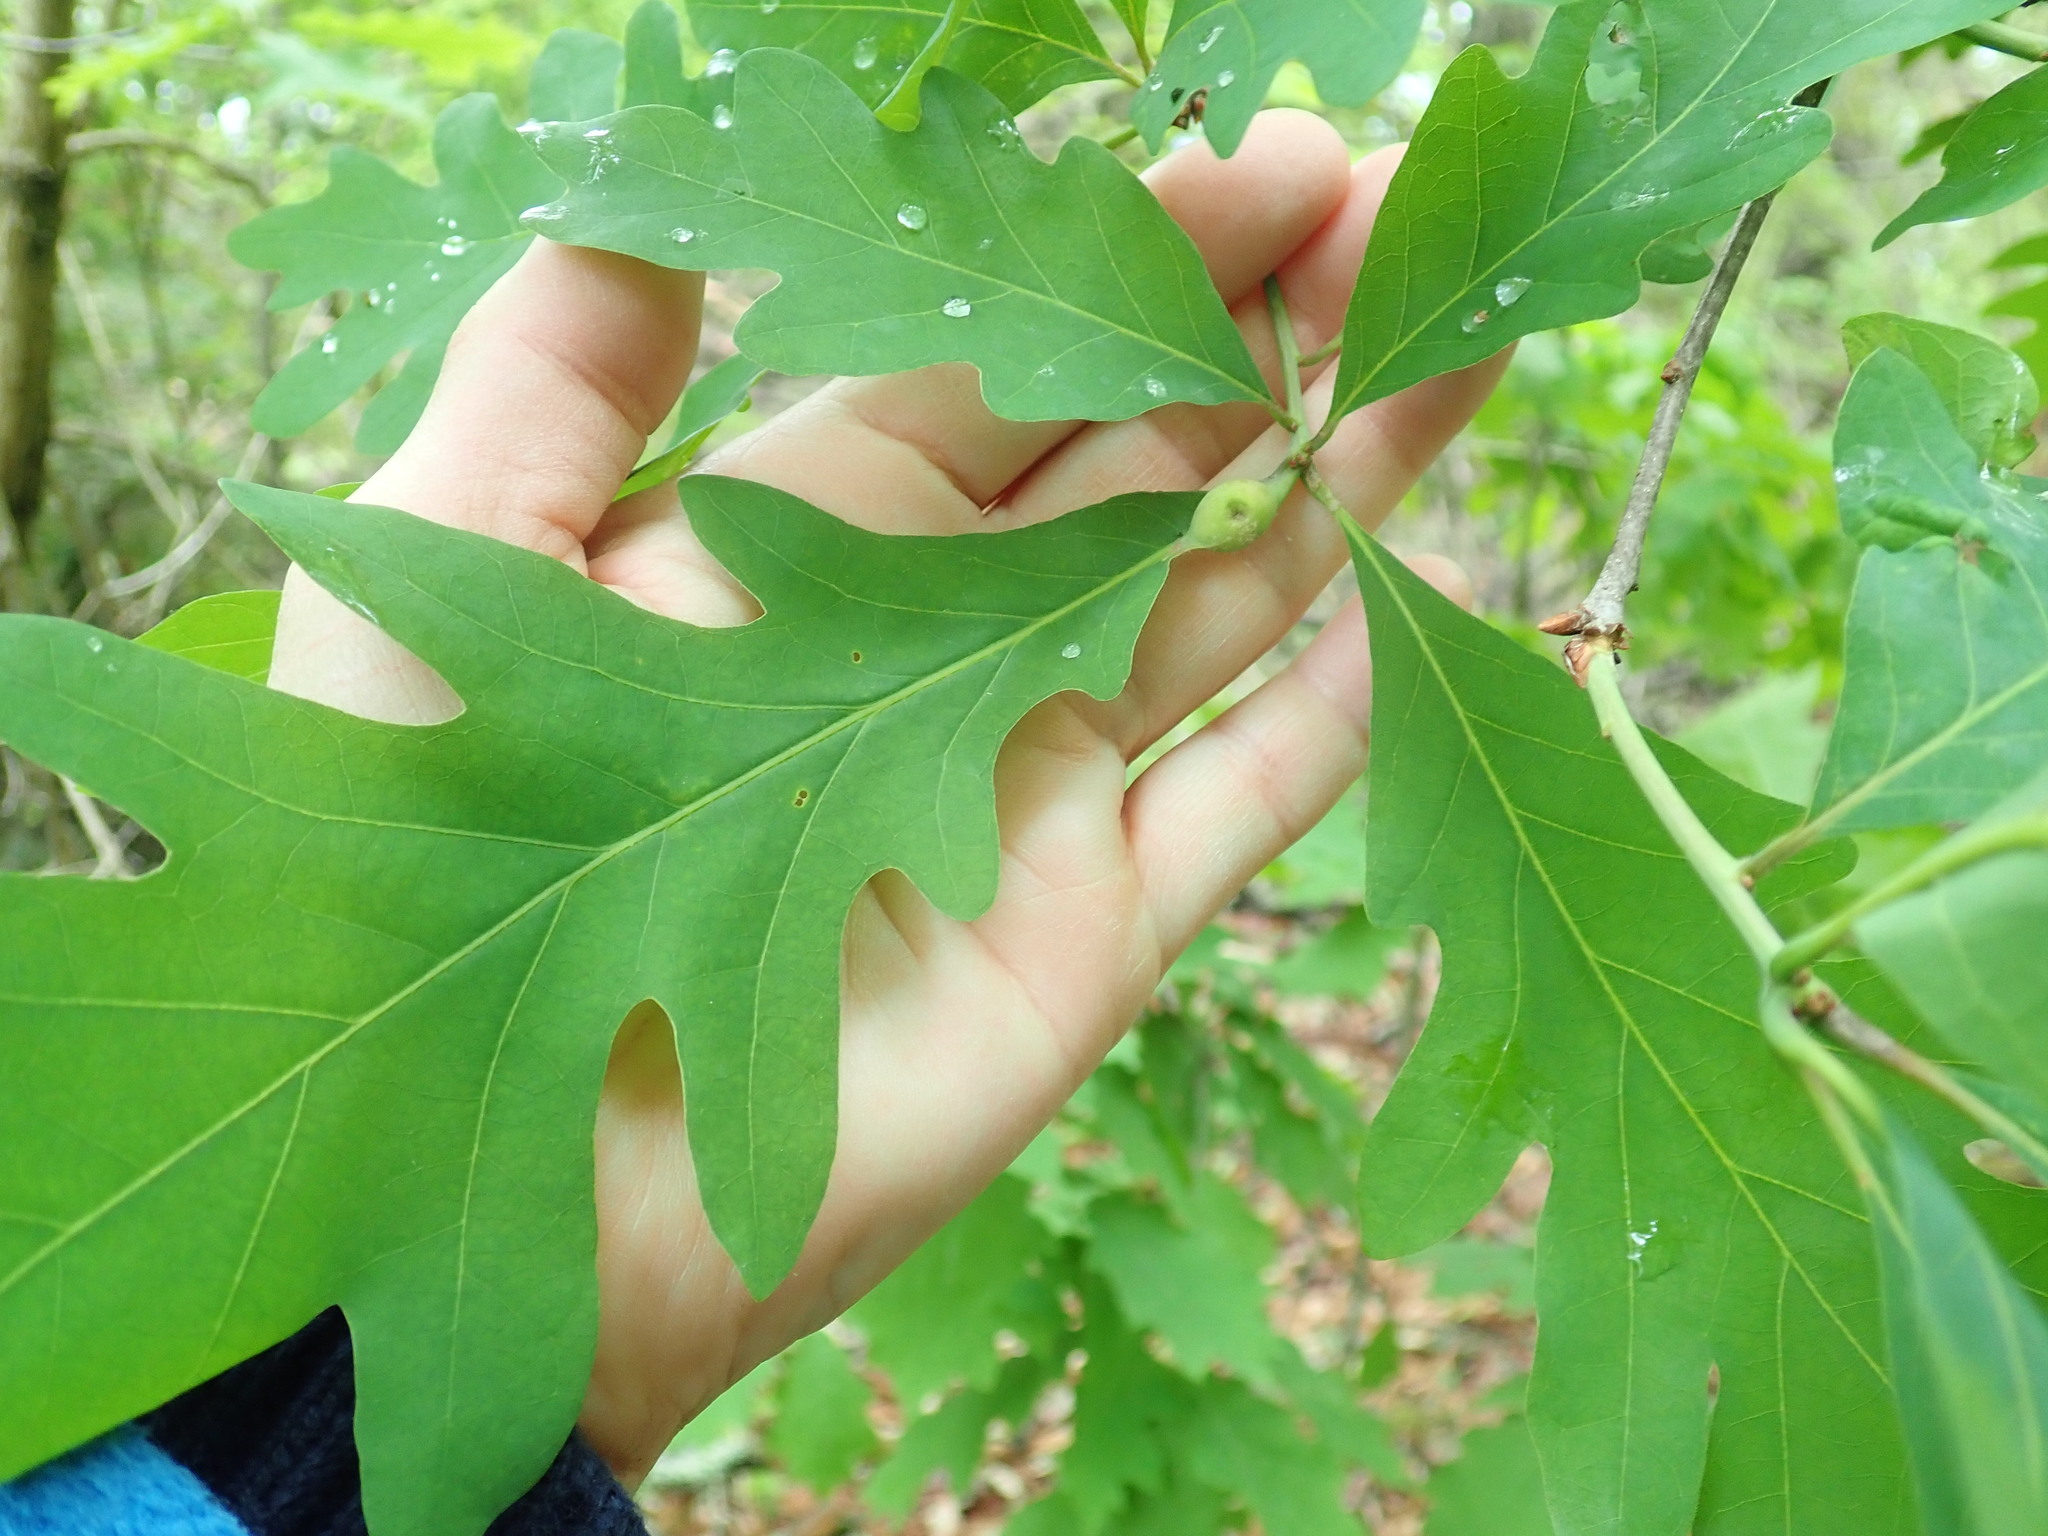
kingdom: Animalia
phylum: Arthropoda
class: Insecta
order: Hymenoptera
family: Cynipidae
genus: Andricus
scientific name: Andricus
